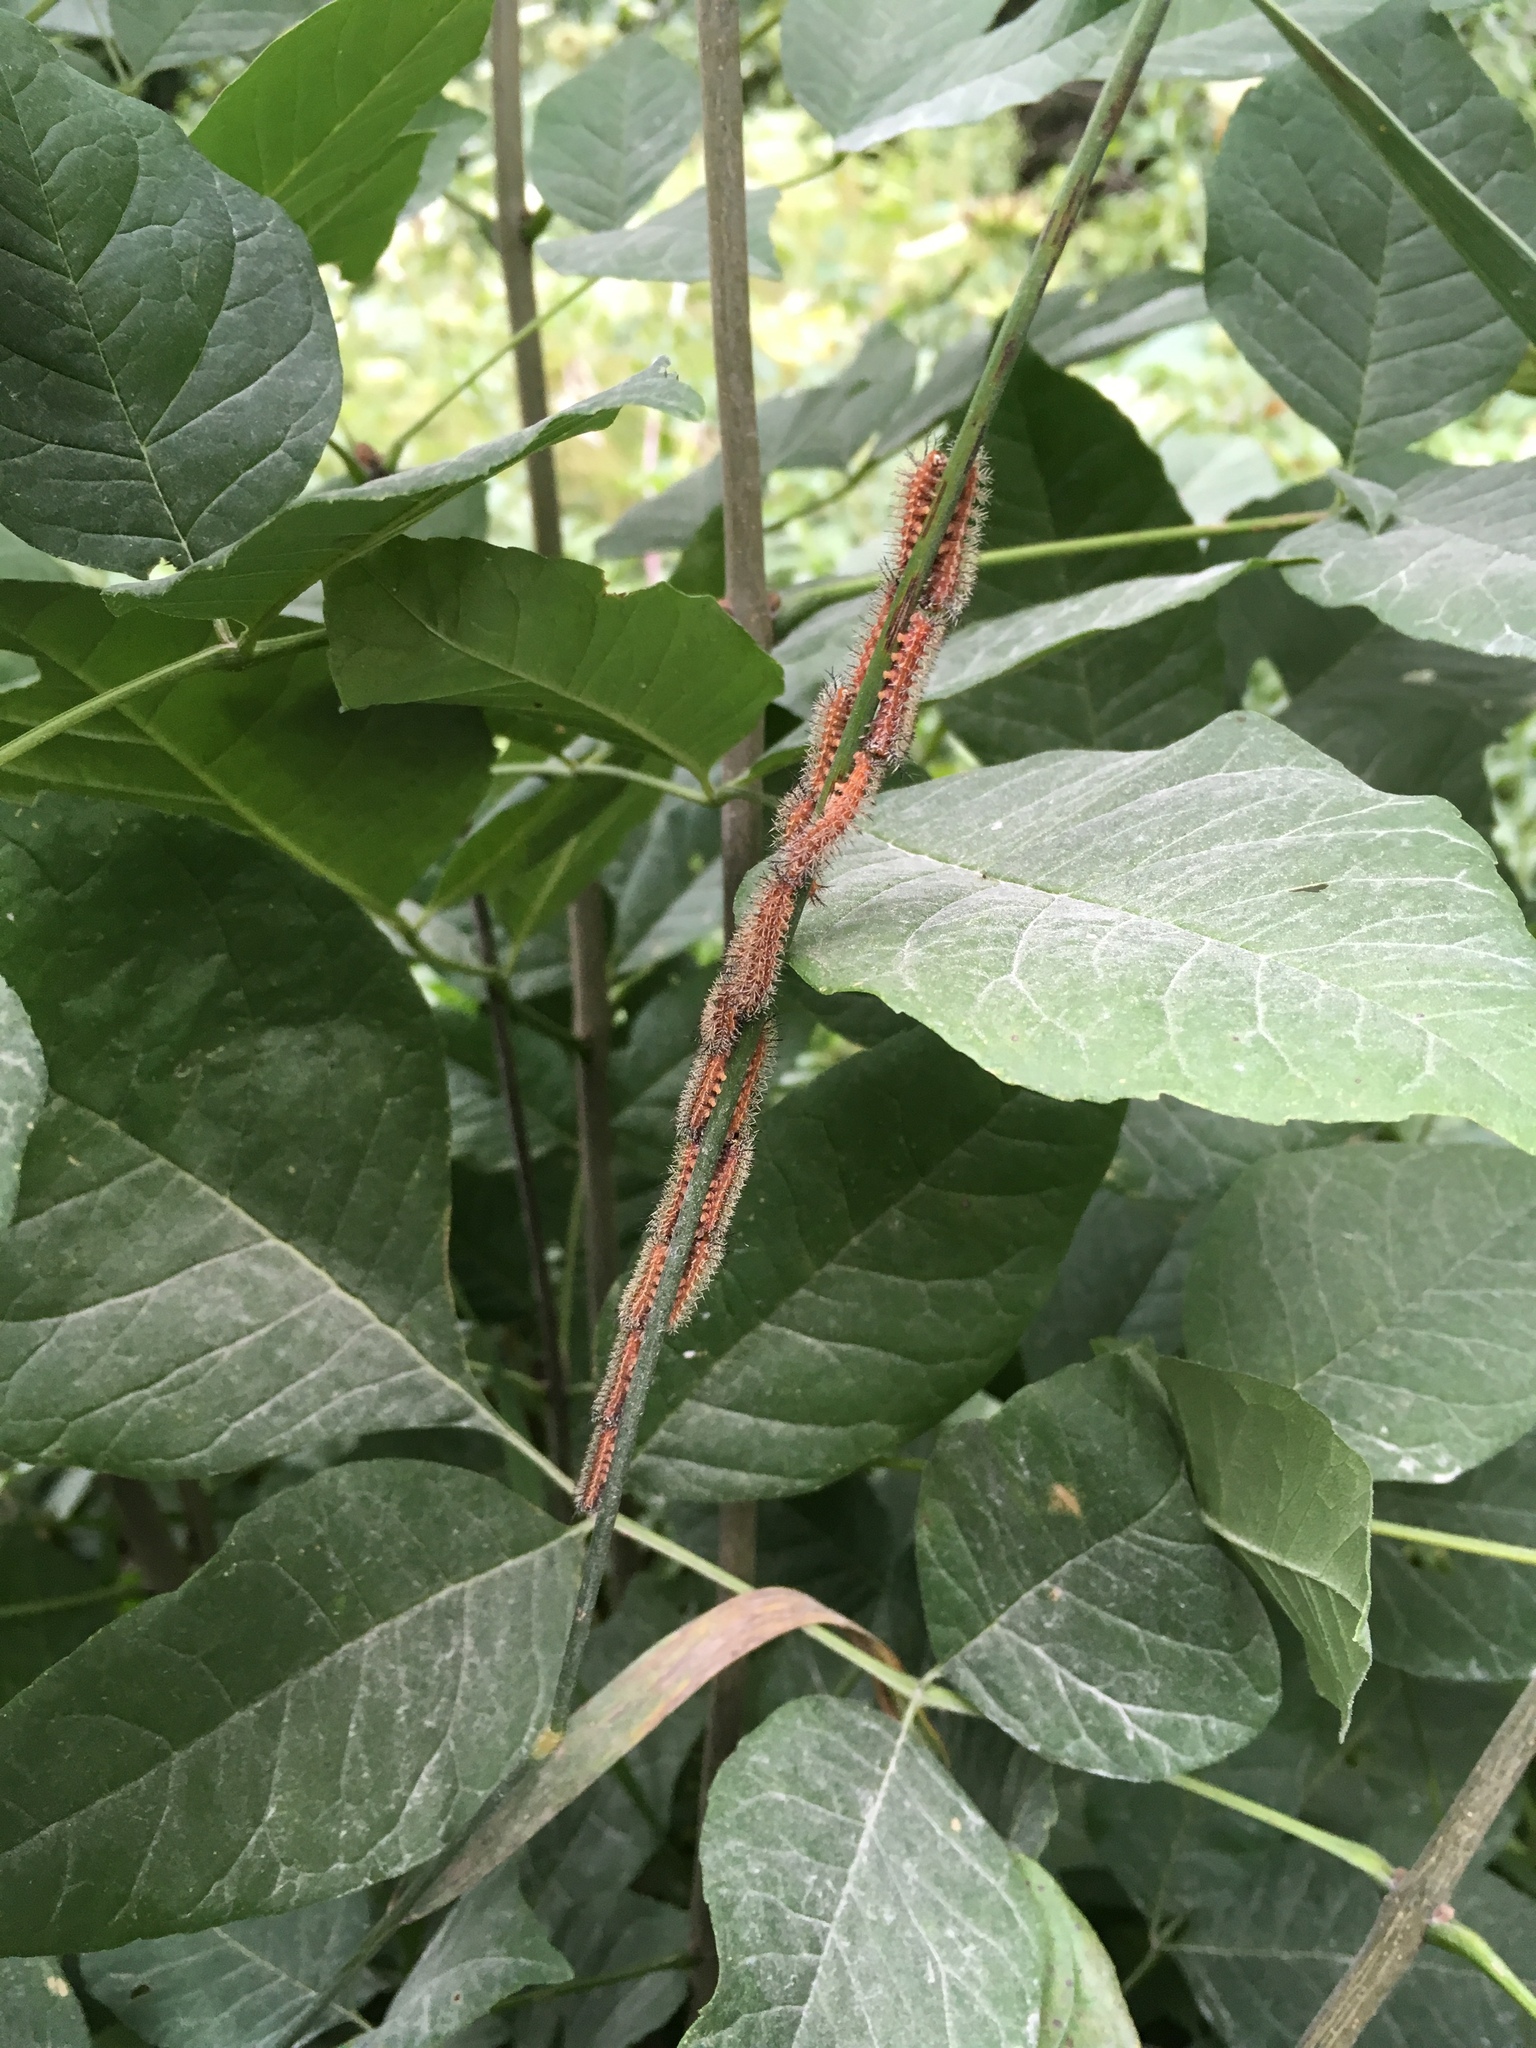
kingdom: Animalia
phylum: Arthropoda
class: Insecta
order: Lepidoptera
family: Saturniidae
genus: Automeris
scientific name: Automeris io
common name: Io moth
